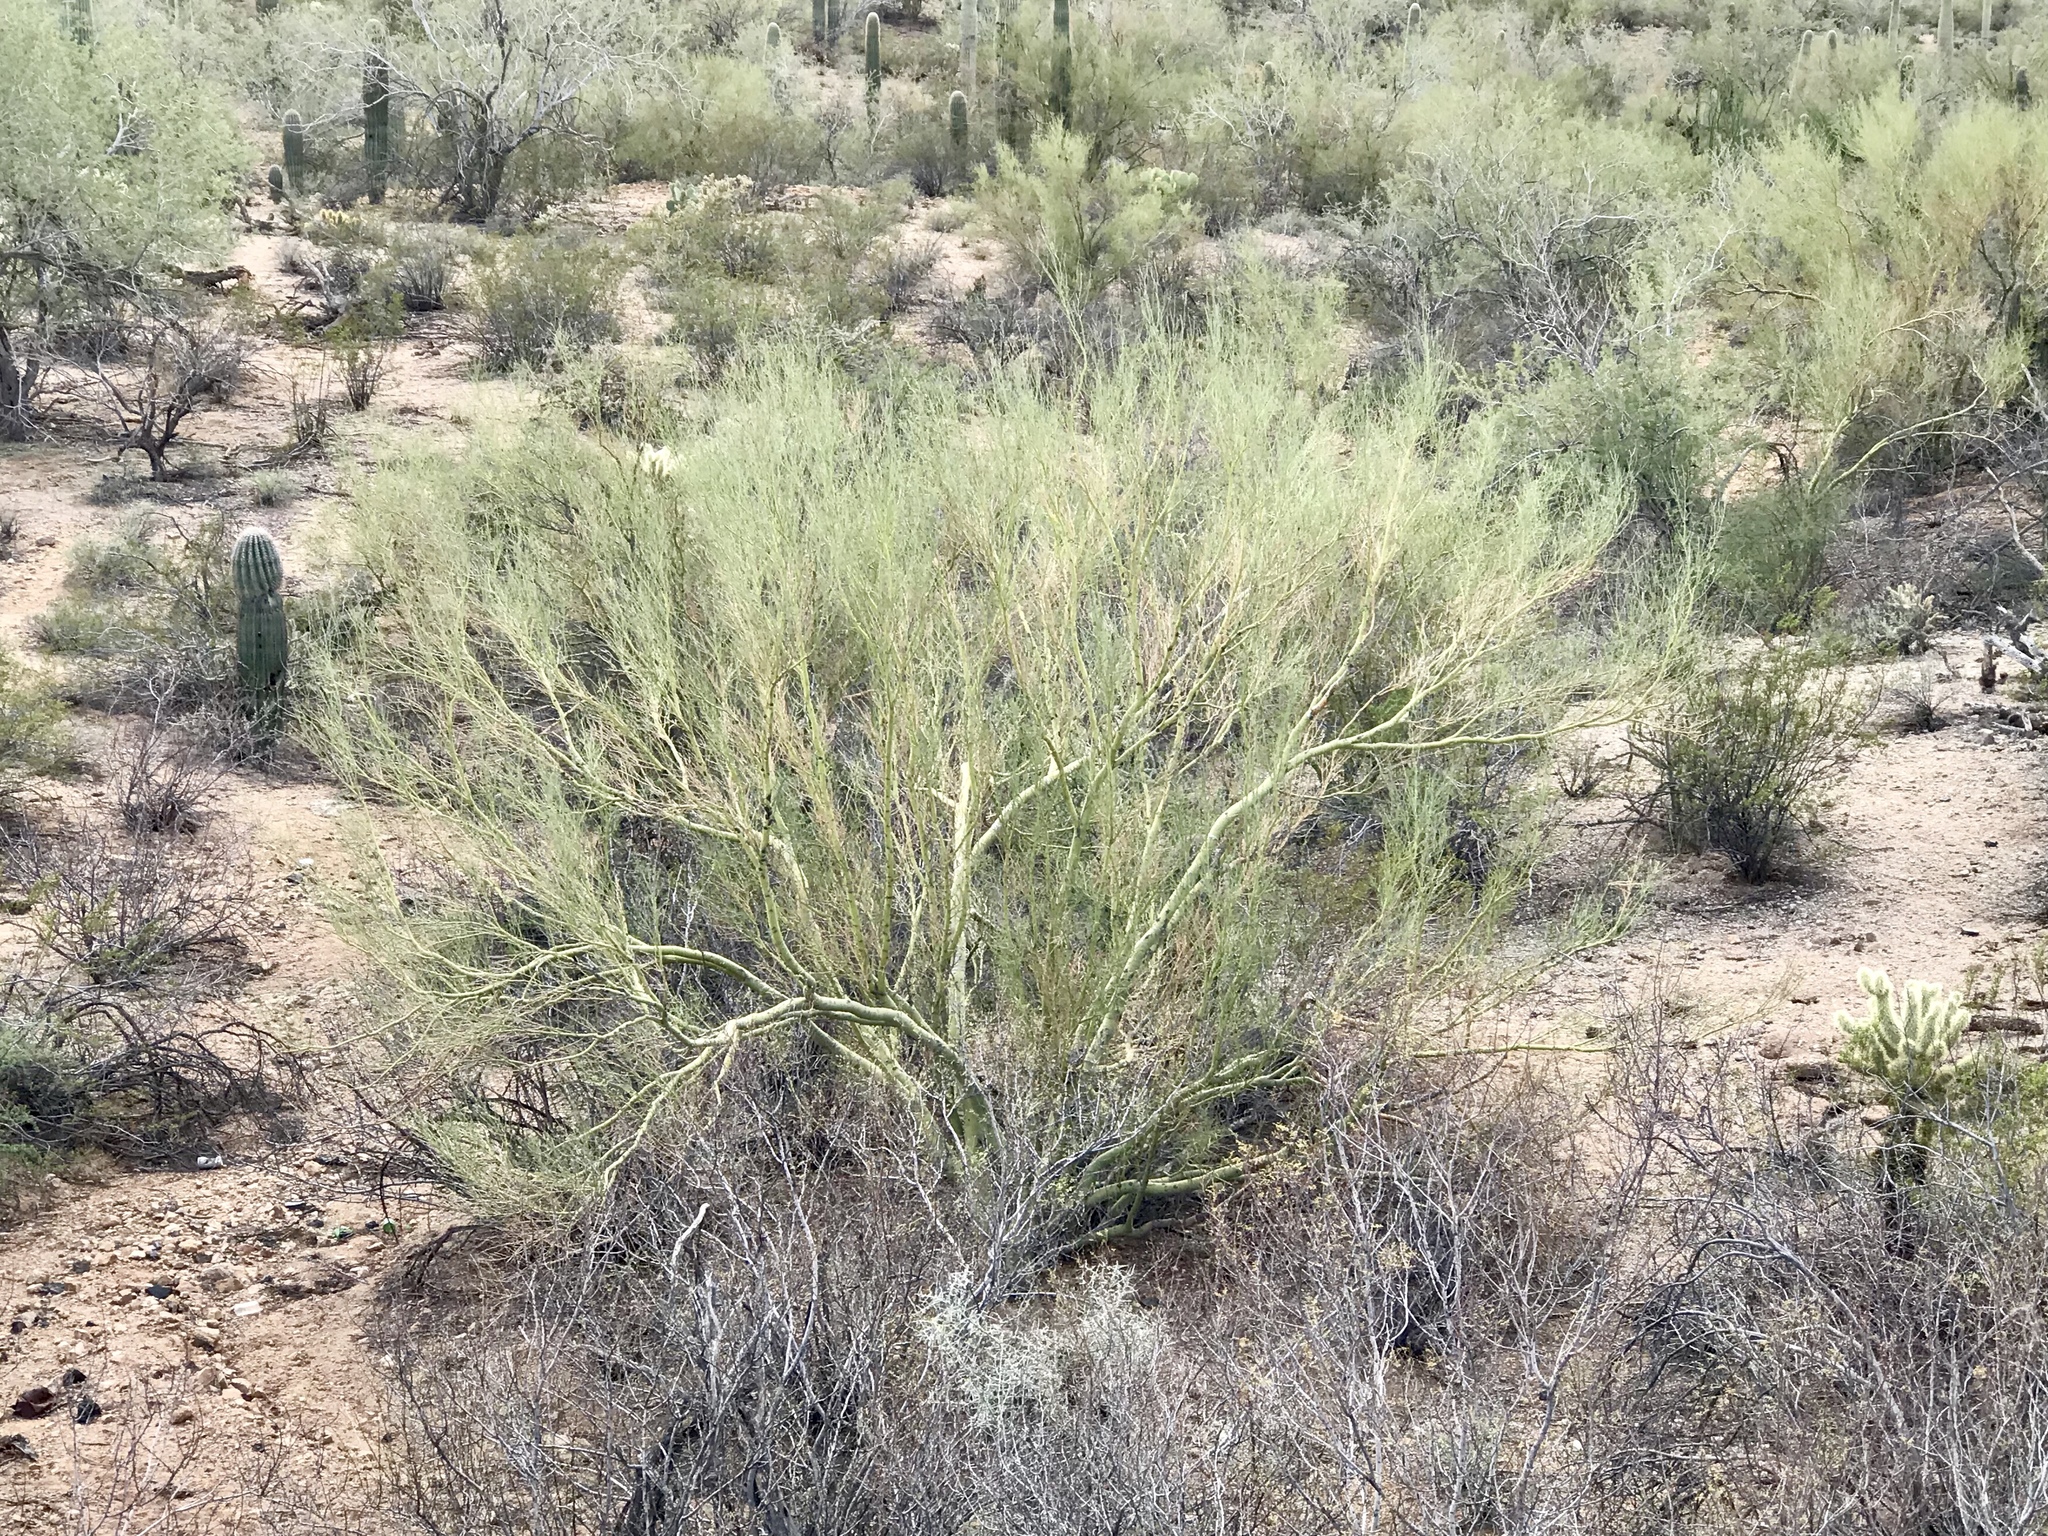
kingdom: Plantae
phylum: Tracheophyta
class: Magnoliopsida
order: Fabales
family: Fabaceae
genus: Parkinsonia
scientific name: Parkinsonia microphylla
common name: Yellow paloverde
